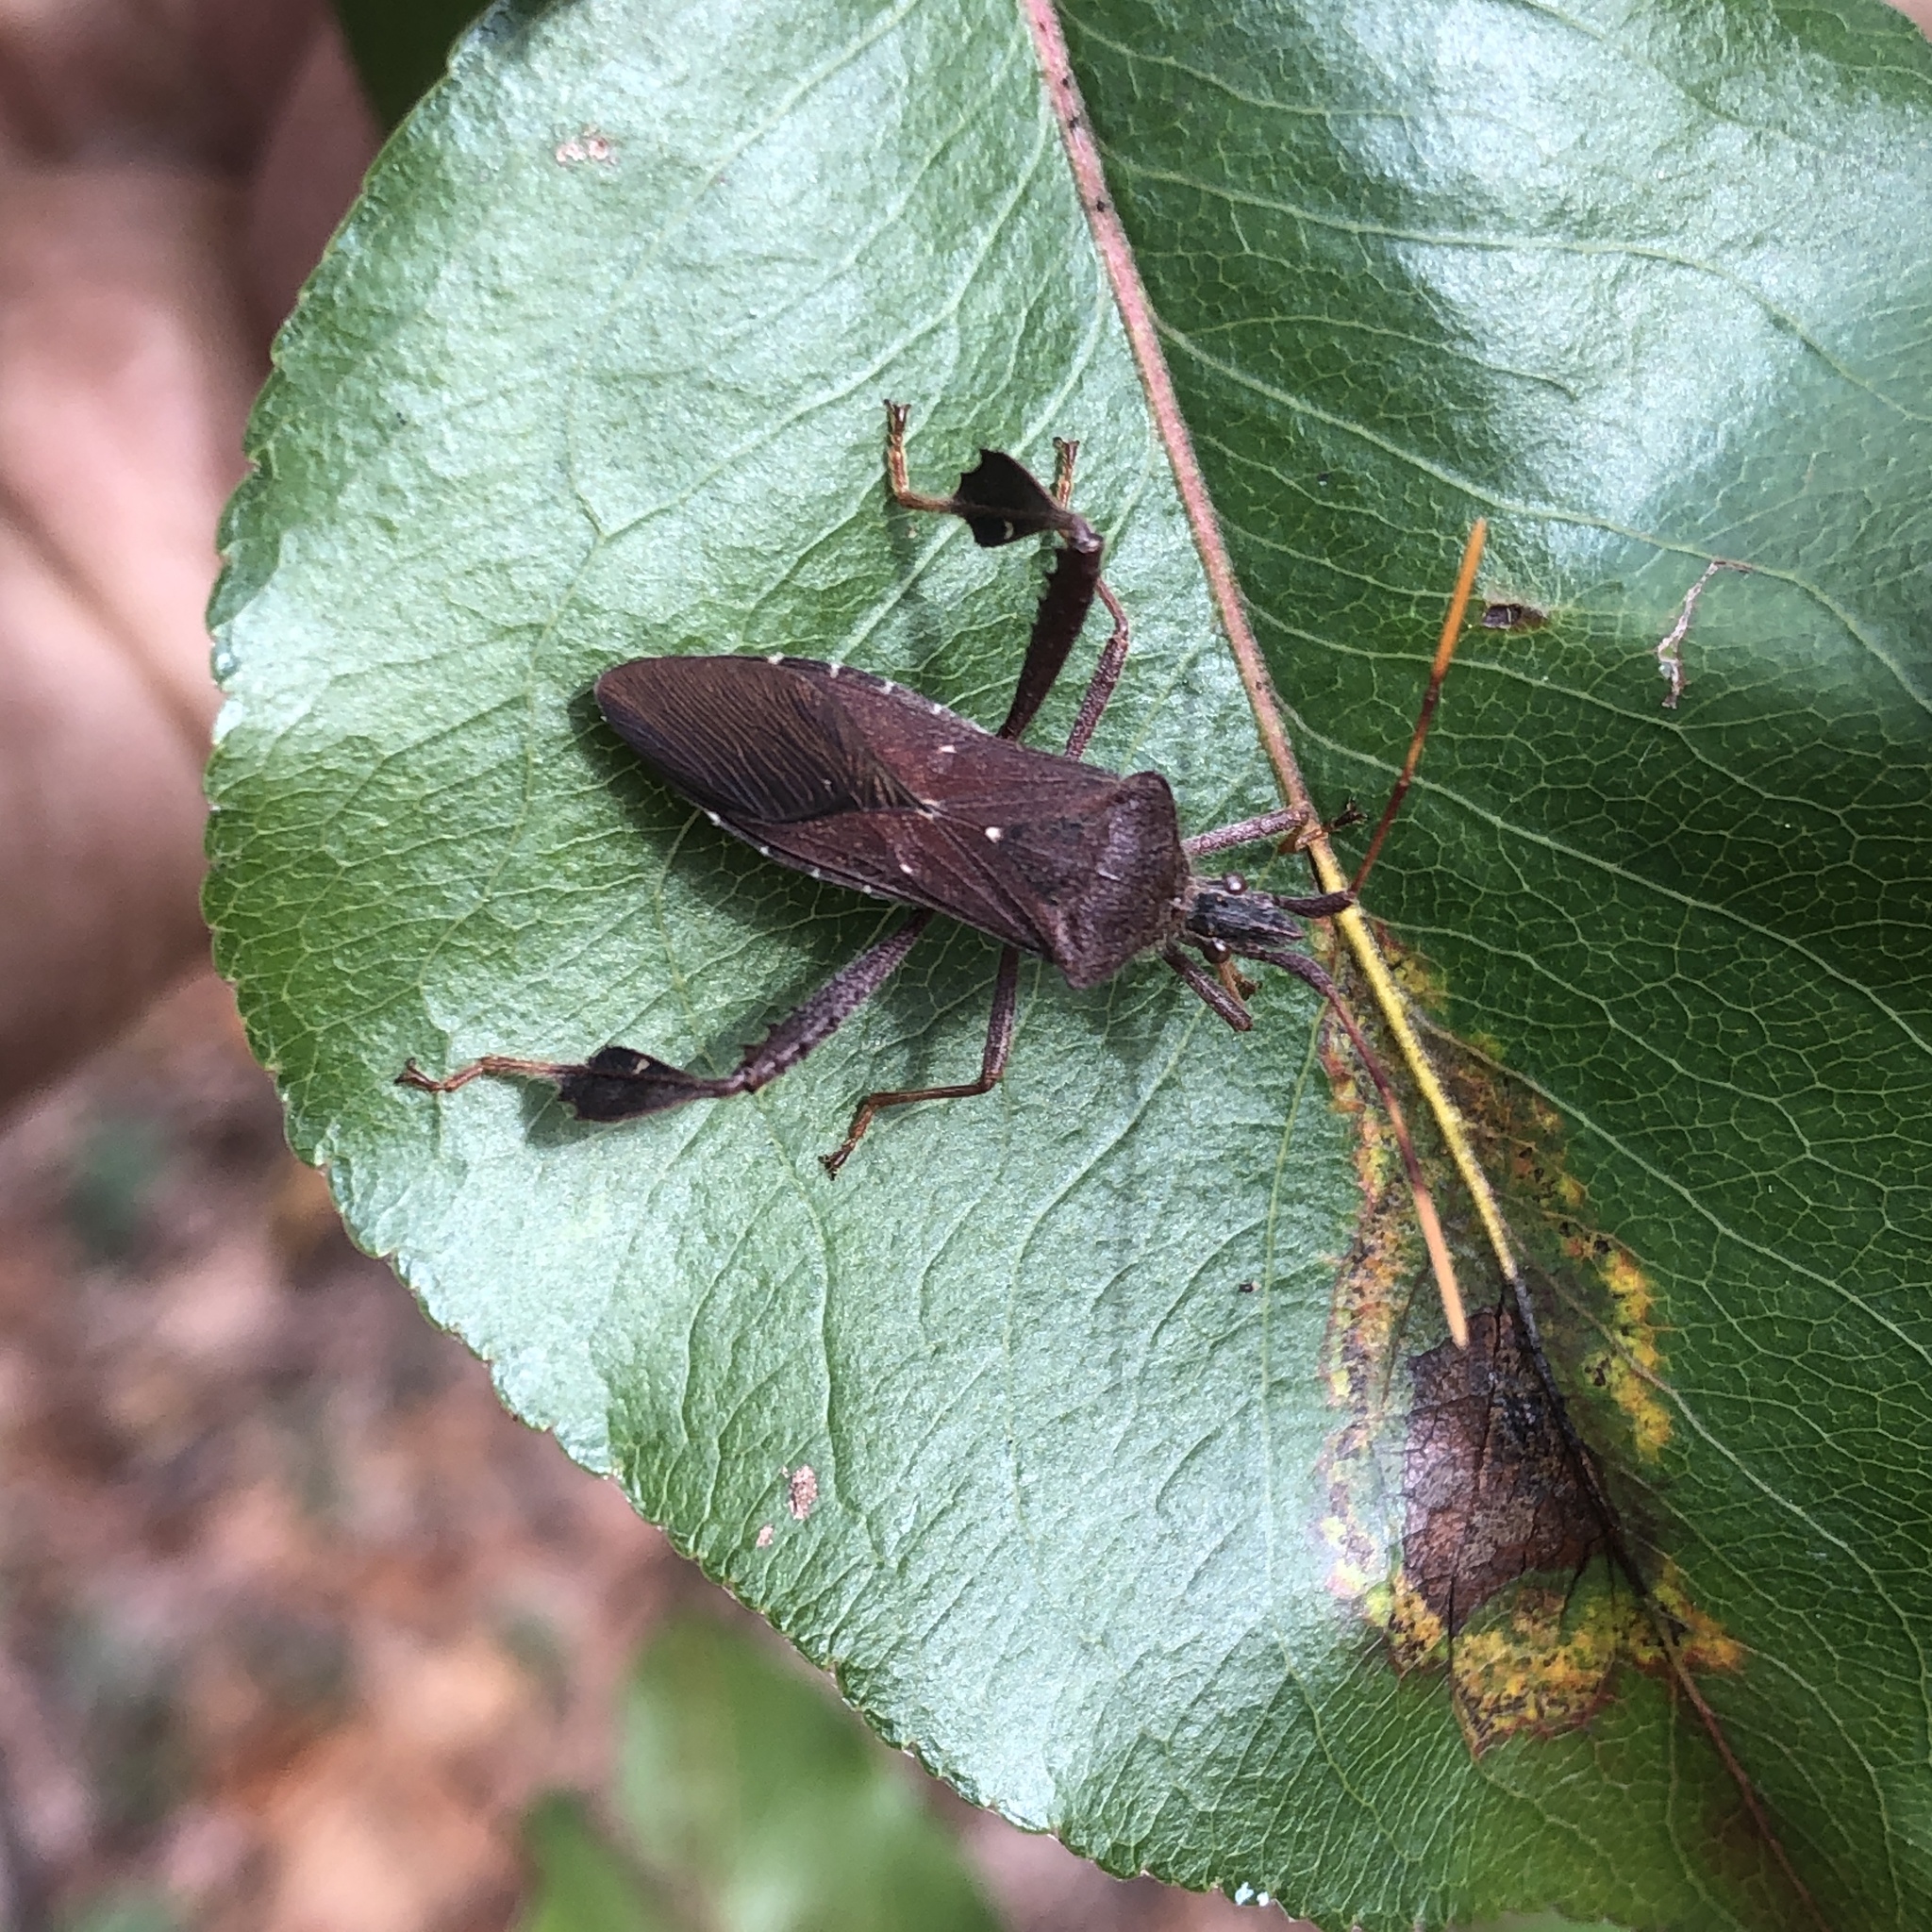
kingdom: Animalia
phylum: Arthropoda
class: Insecta
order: Hemiptera
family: Coreidae
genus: Leptoglossus
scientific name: Leptoglossus oppositus
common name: Northern leaf-footed bug
